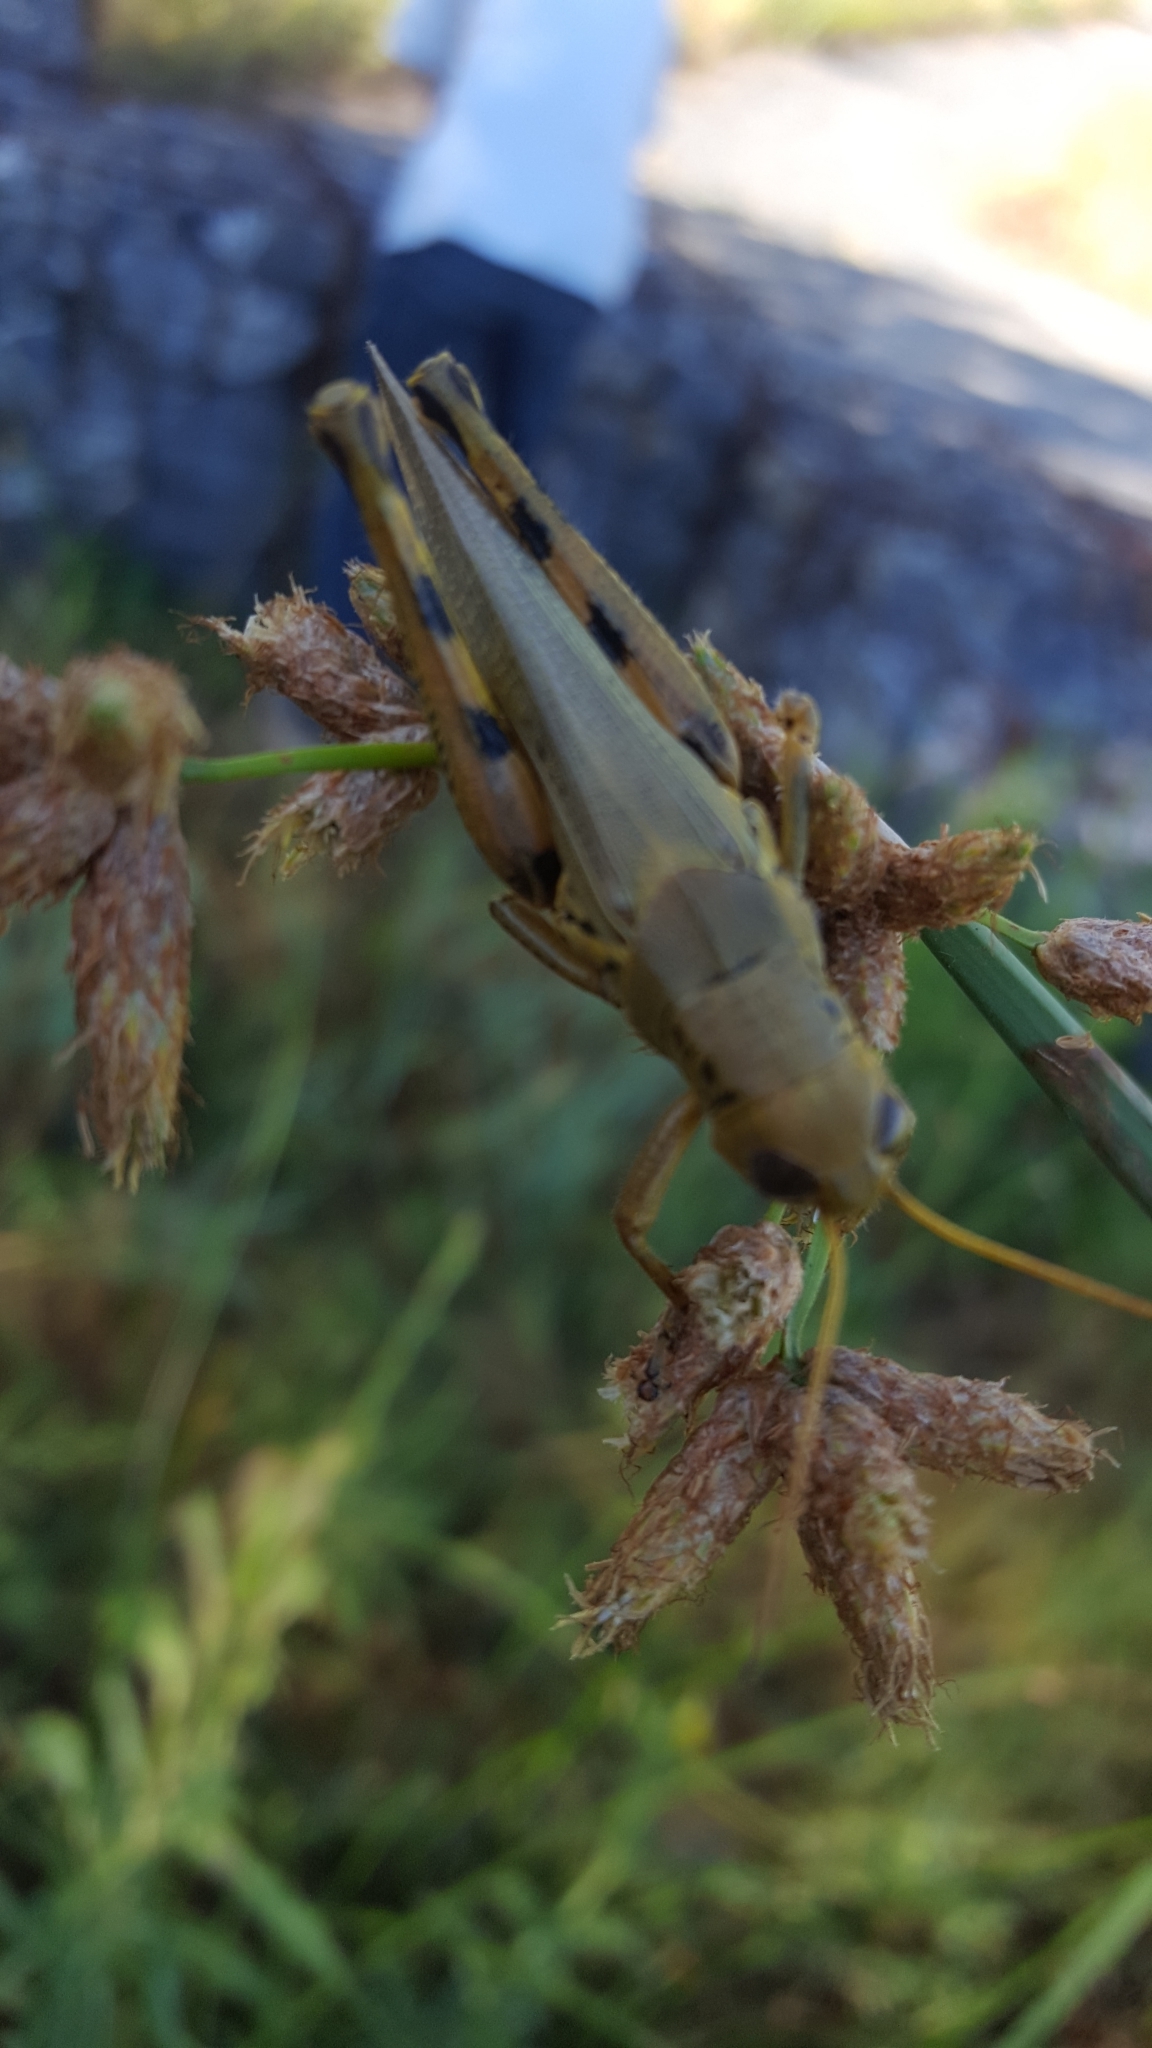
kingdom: Animalia
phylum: Arthropoda
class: Insecta
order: Orthoptera
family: Acrididae
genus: Melanoplus
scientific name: Melanoplus differentialis
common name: Differential grasshopper
